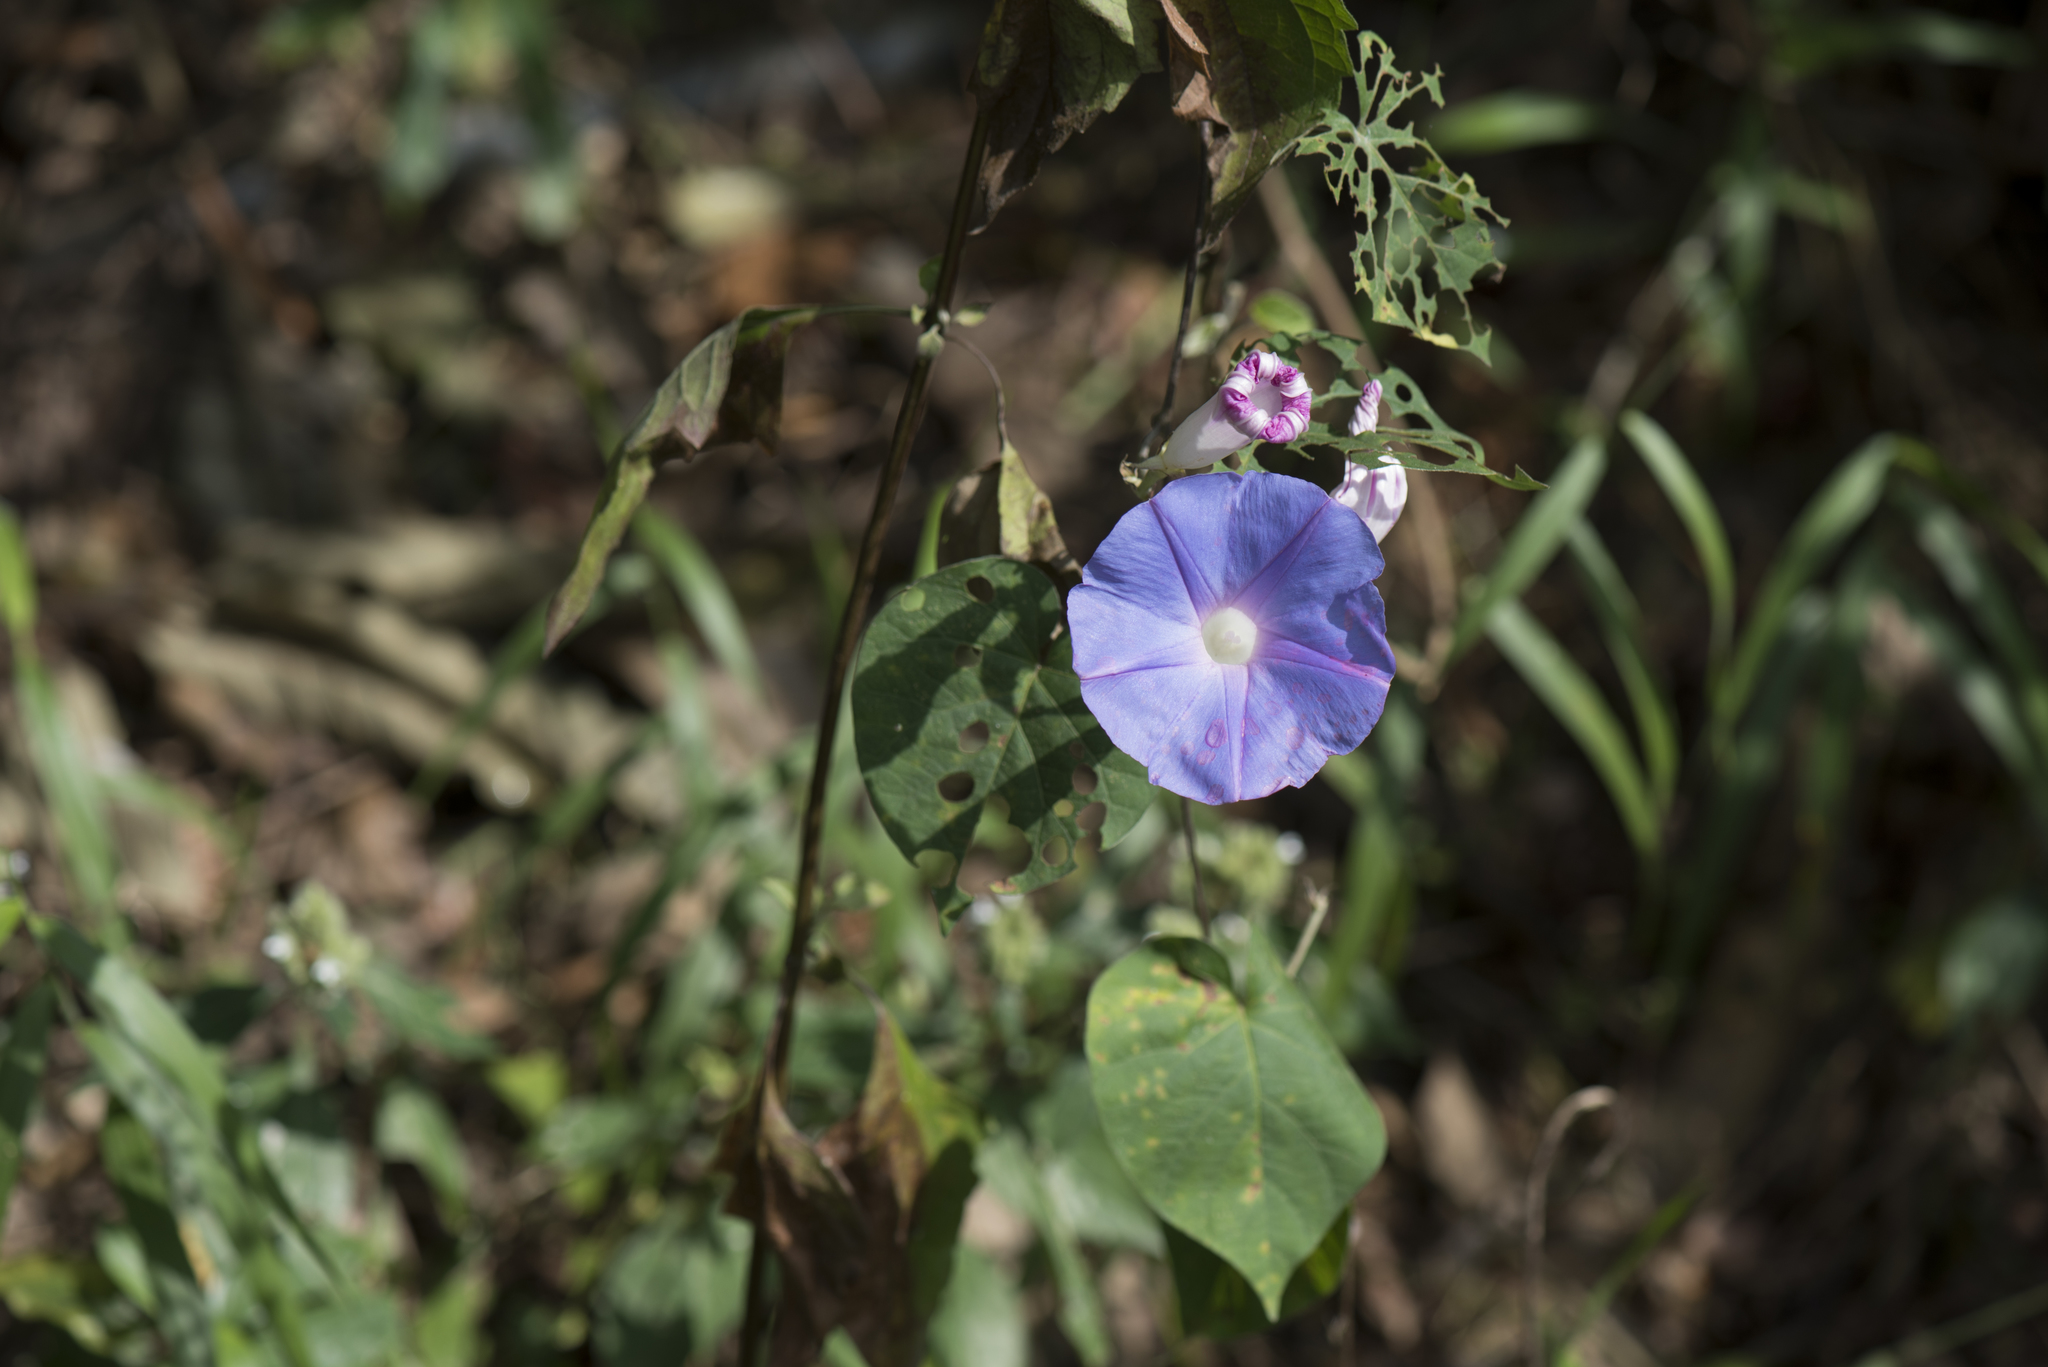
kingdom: Plantae
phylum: Tracheophyta
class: Magnoliopsida
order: Solanales
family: Convolvulaceae
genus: Ipomoea
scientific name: Ipomoea indica
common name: Blue dawnflower
